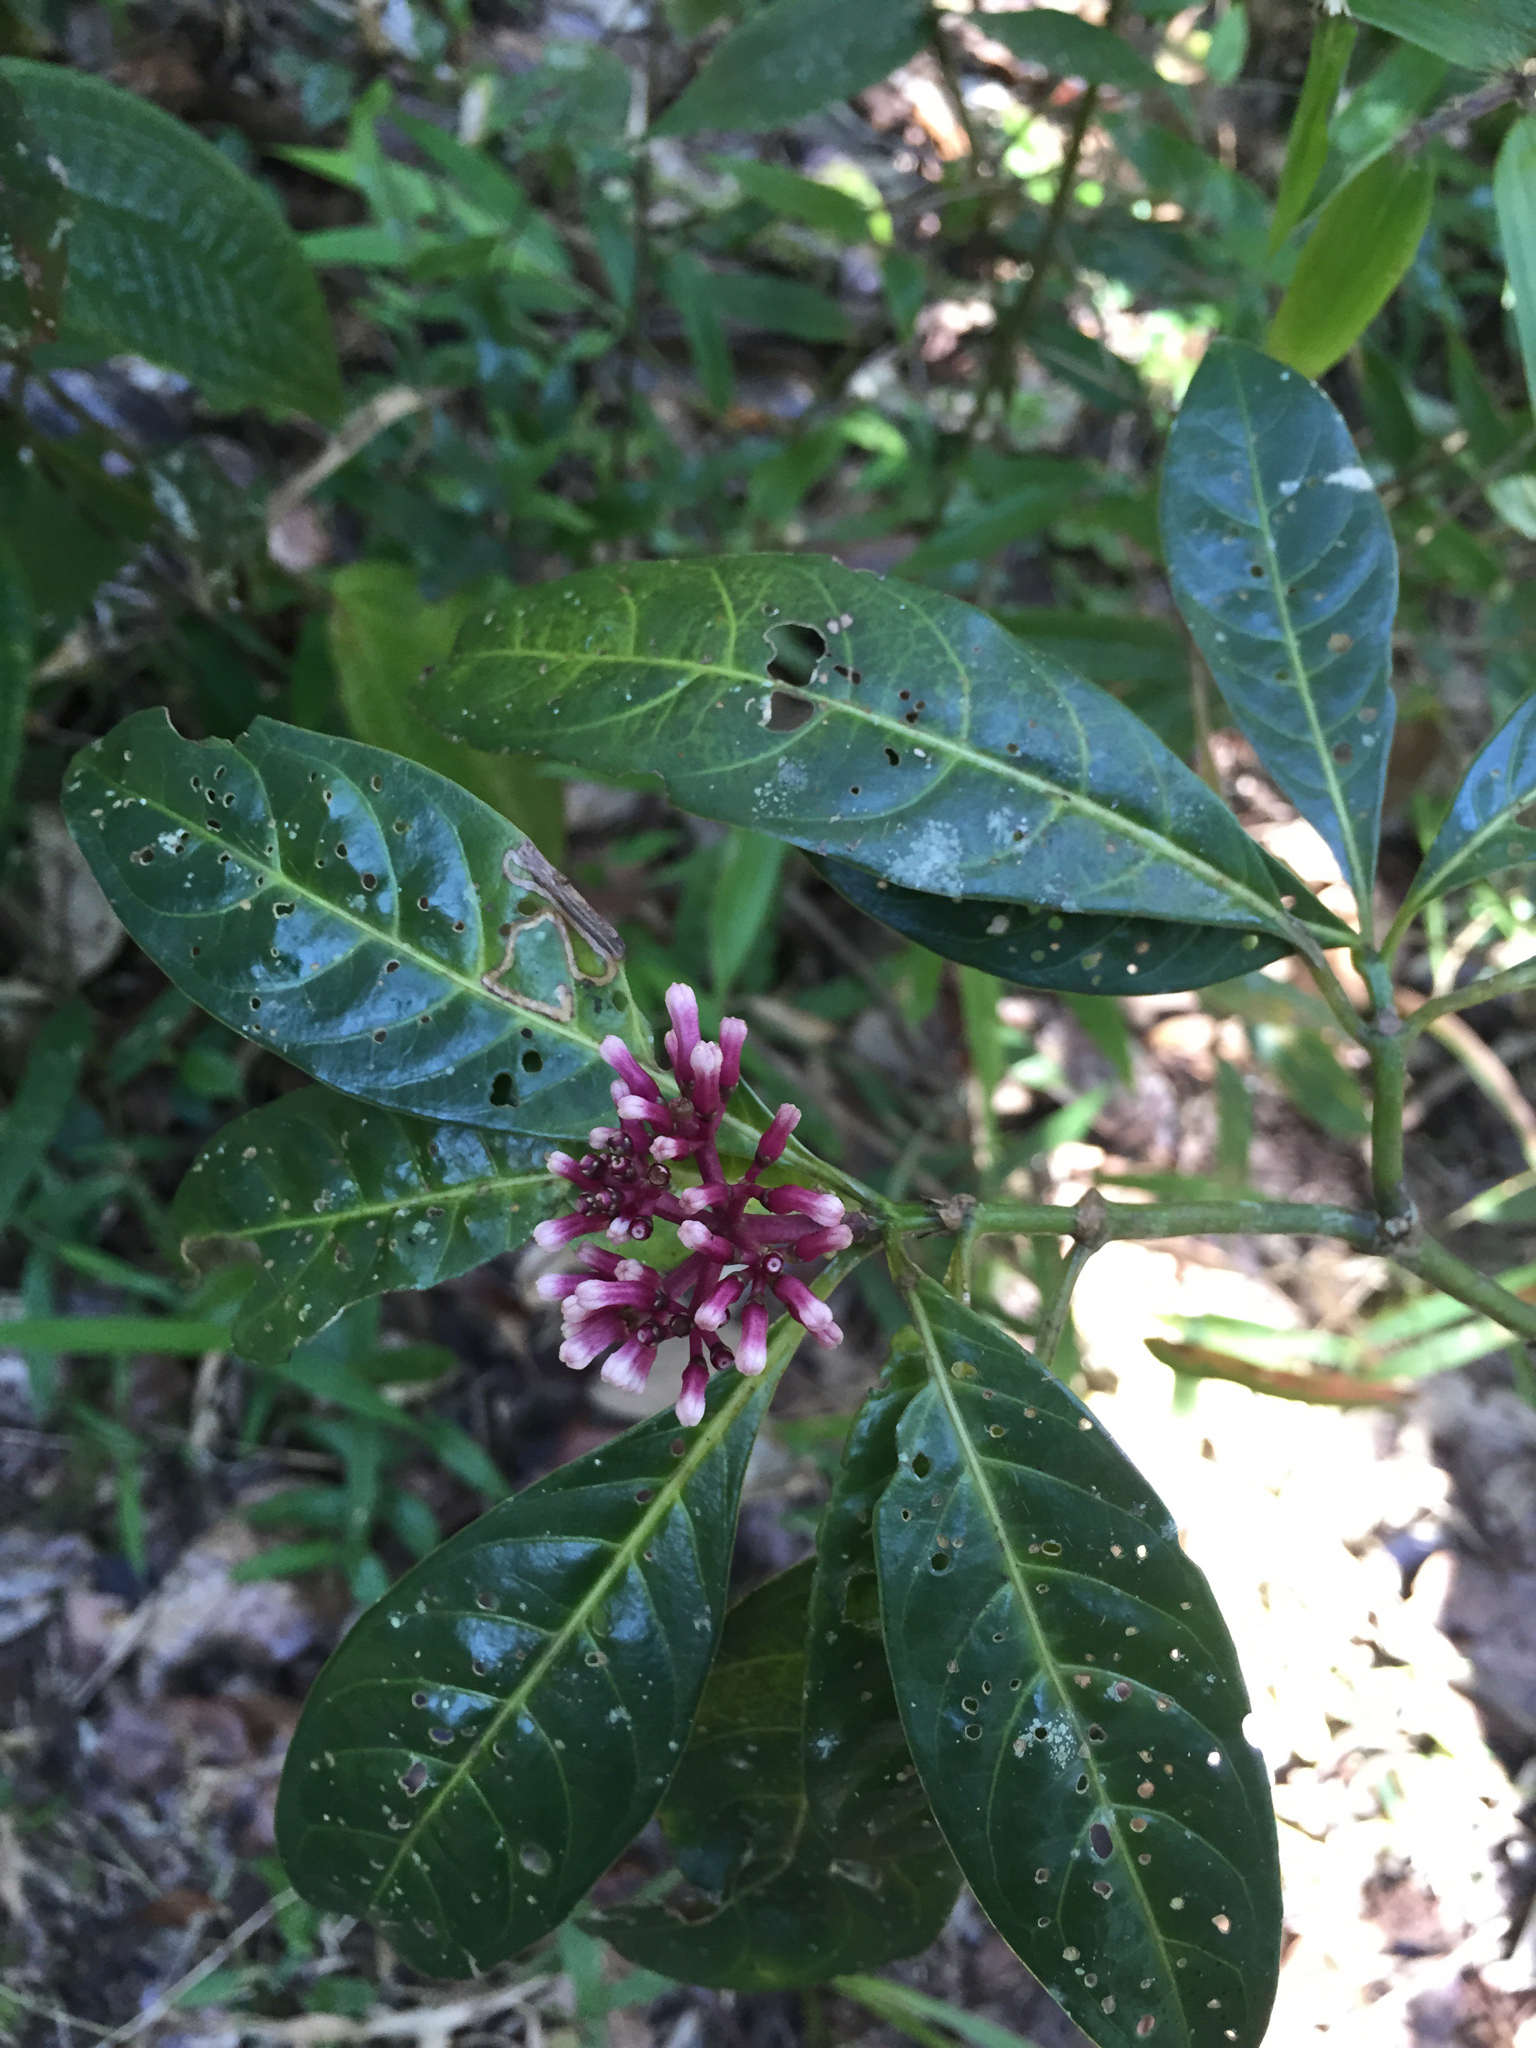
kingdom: Plantae
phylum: Tracheophyta
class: Magnoliopsida
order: Gentianales
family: Rubiaceae
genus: Chassalia
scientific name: Chassalia ternifolia
